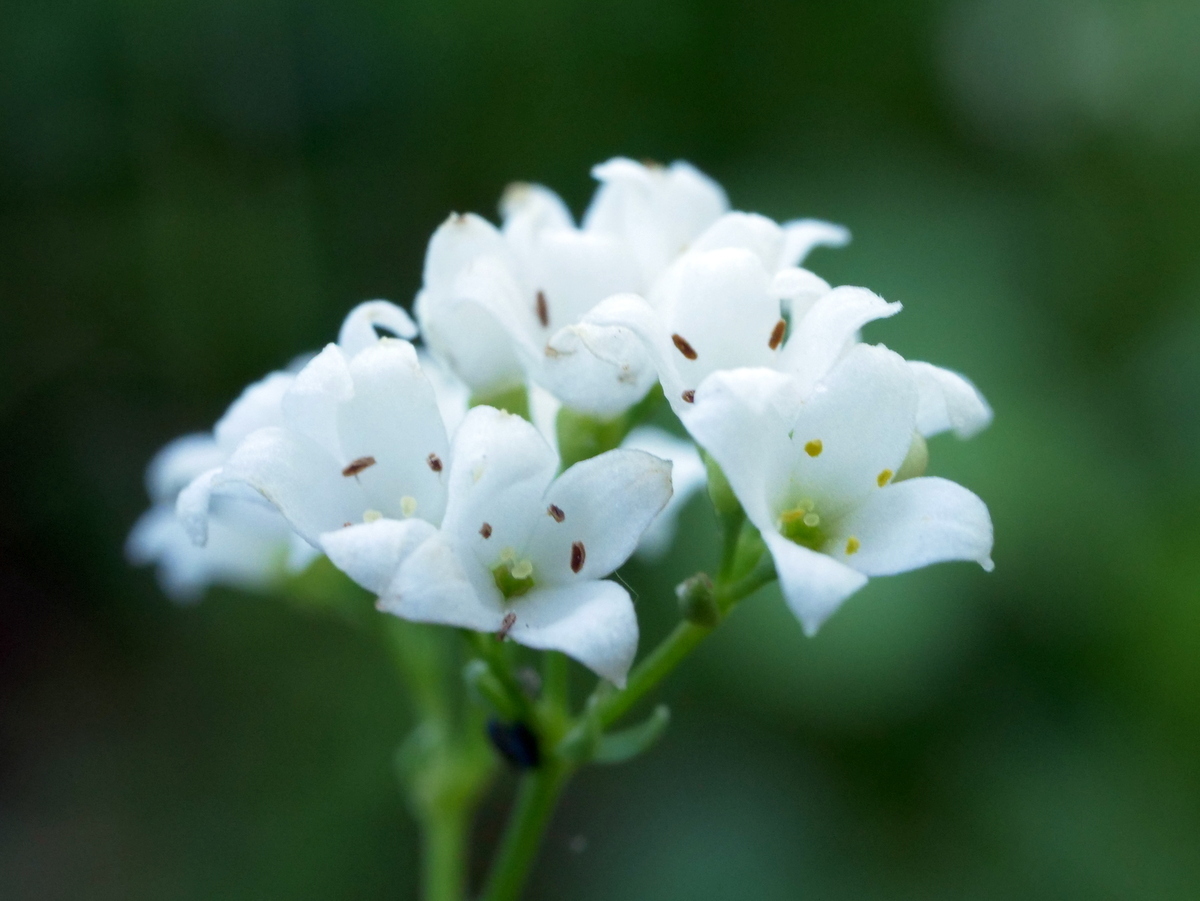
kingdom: Plantae
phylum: Tracheophyta
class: Magnoliopsida
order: Gentianales
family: Rubiaceae
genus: Galium
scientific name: Galium glaucum
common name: Waxy bedstraw
